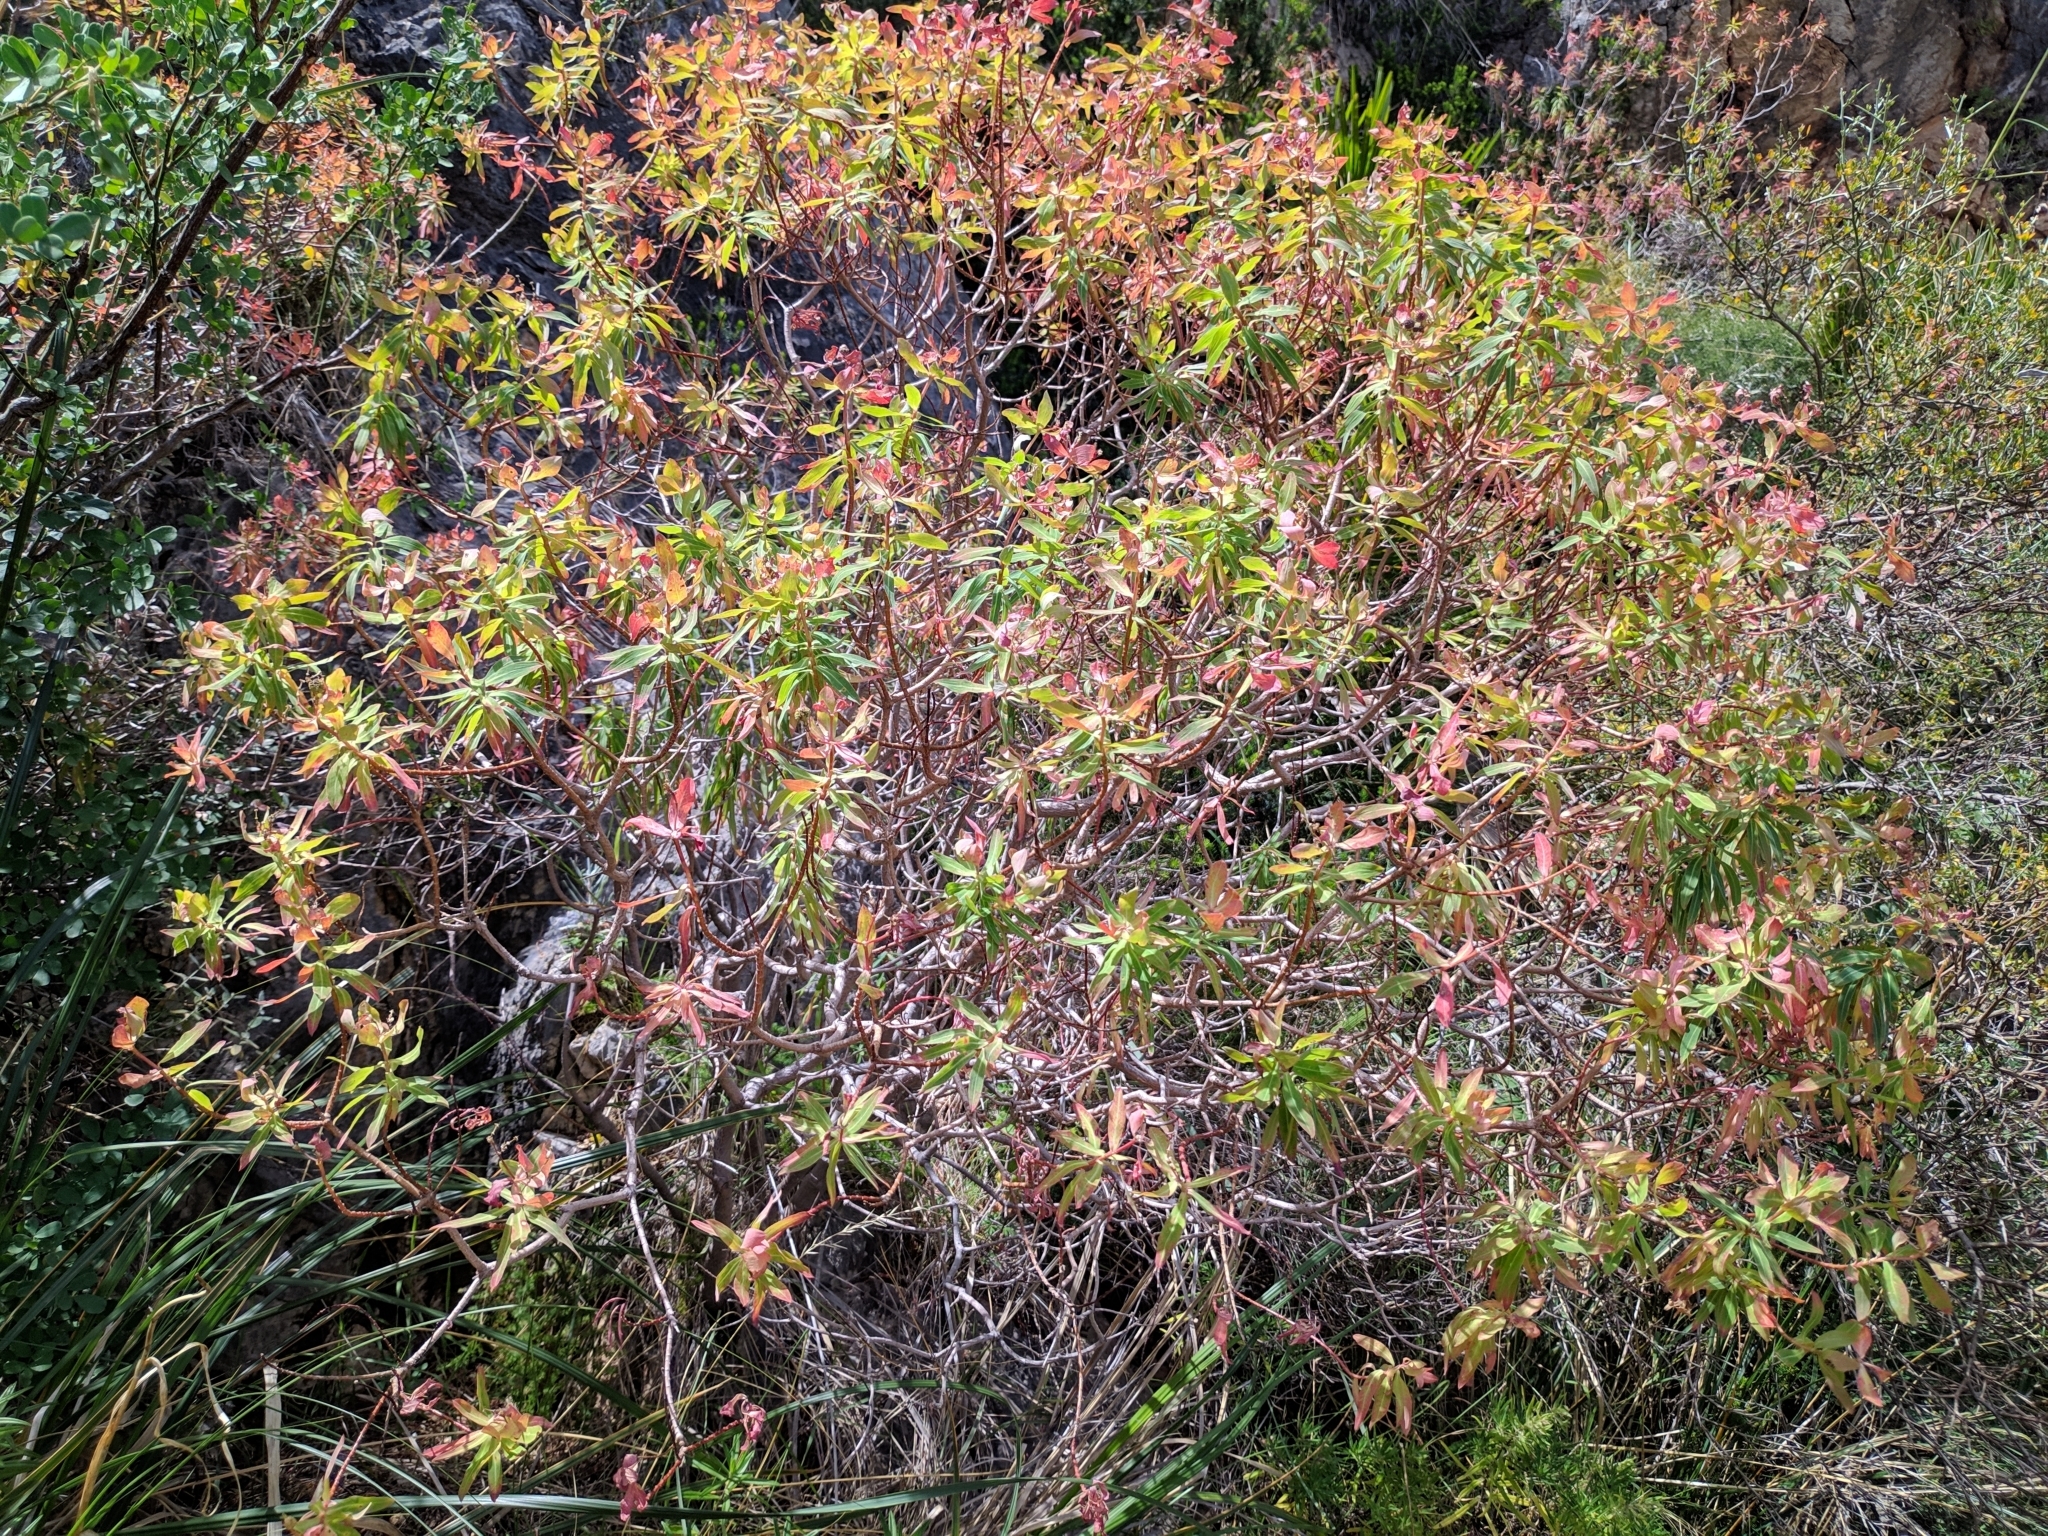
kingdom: Plantae
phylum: Tracheophyta
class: Magnoliopsida
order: Malpighiales
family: Euphorbiaceae
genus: Euphorbia
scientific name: Euphorbia dendroides
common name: Tree spurge
